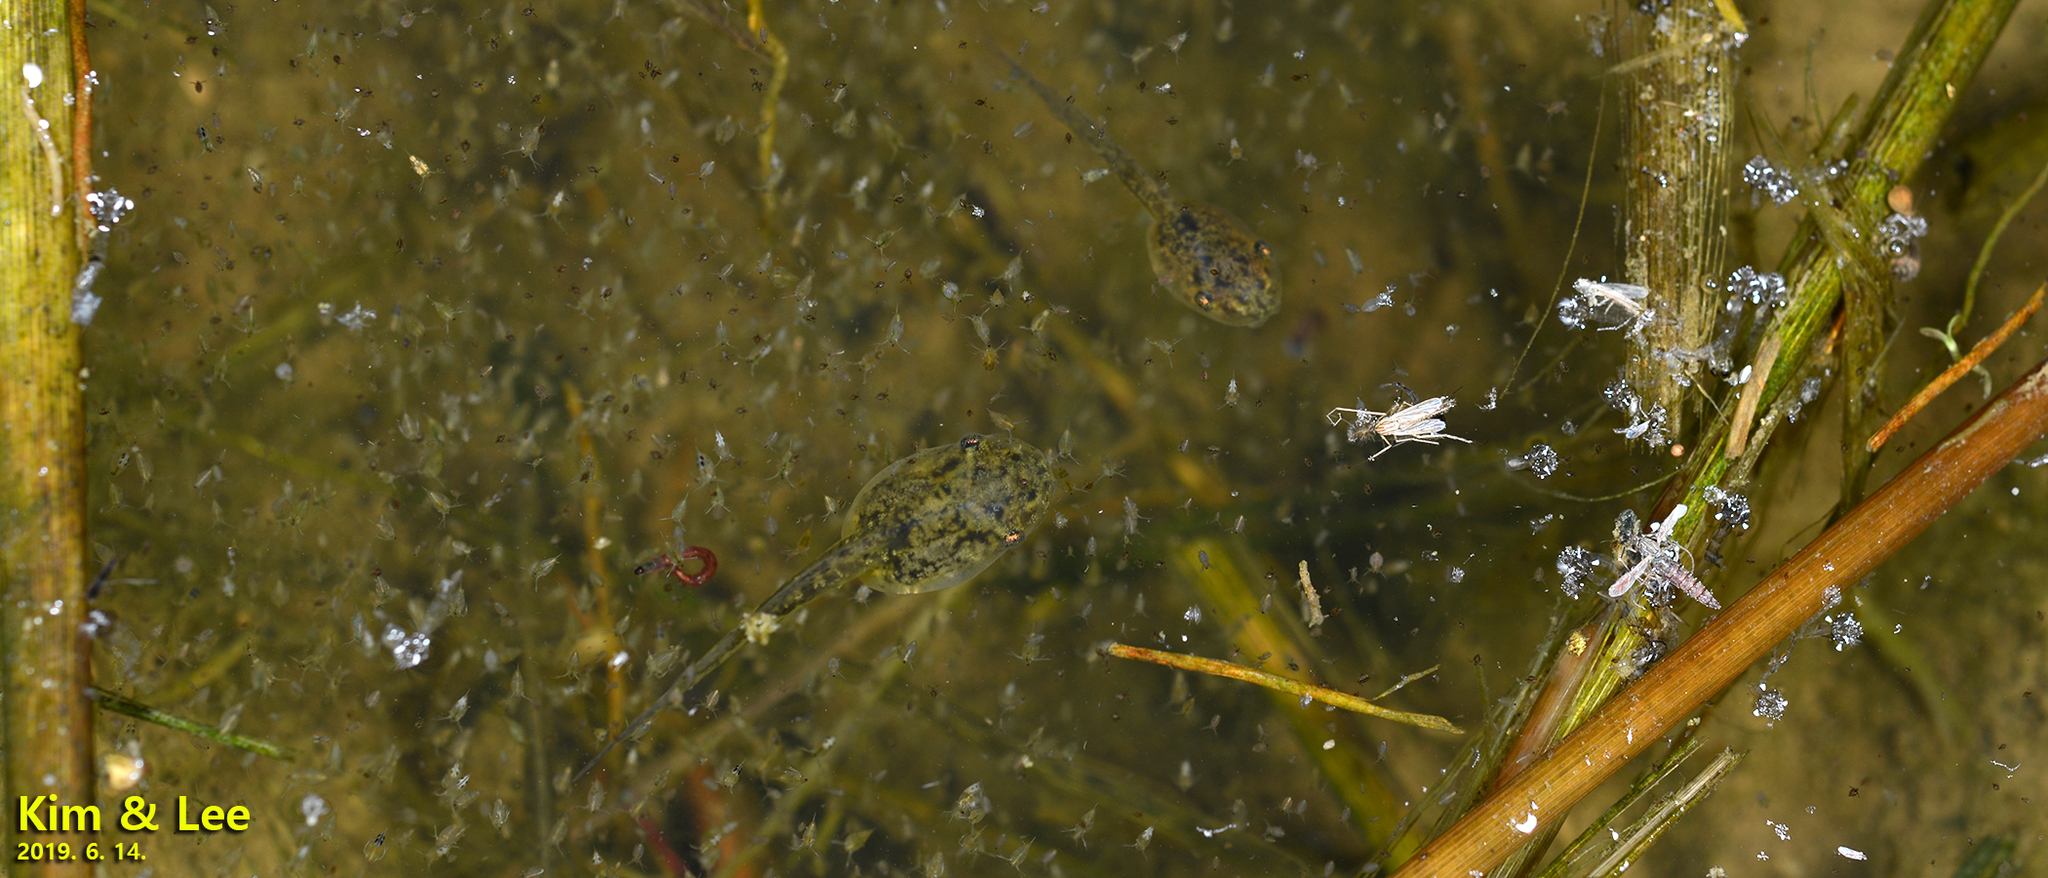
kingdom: Animalia
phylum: Chordata
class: Amphibia
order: Anura
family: Hylidae
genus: Dryophytes
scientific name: Dryophytes japonicus
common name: Japanese treefrog
